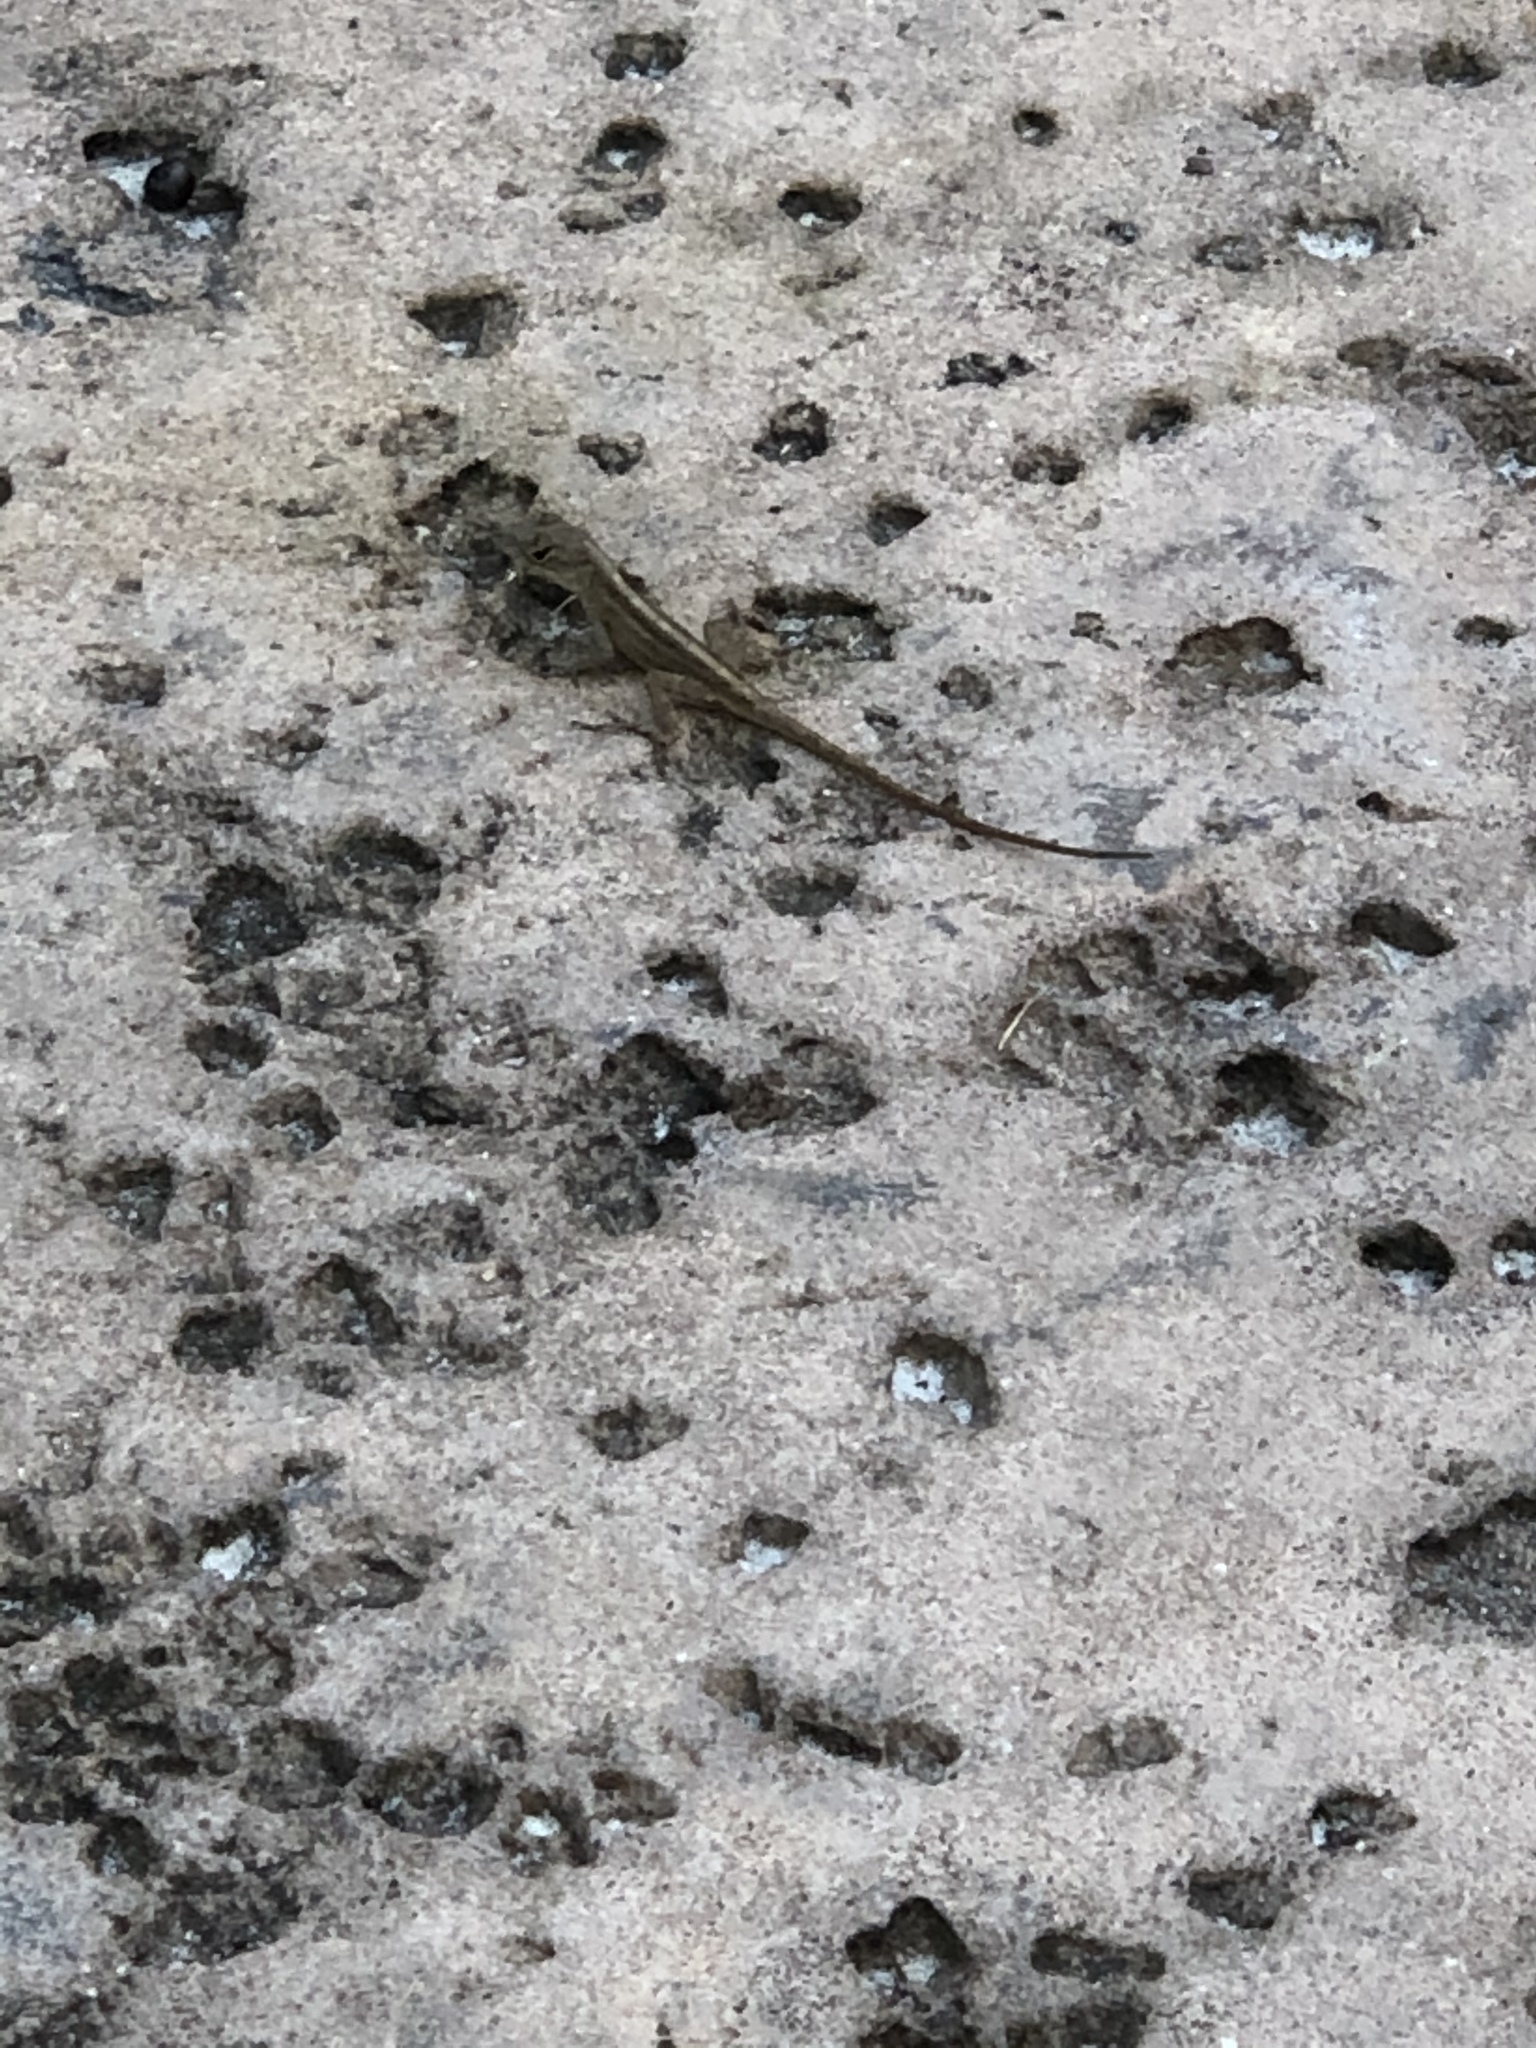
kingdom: Animalia
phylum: Chordata
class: Squamata
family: Dactyloidae
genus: Anolis
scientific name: Anolis sagrei
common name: Brown anole
